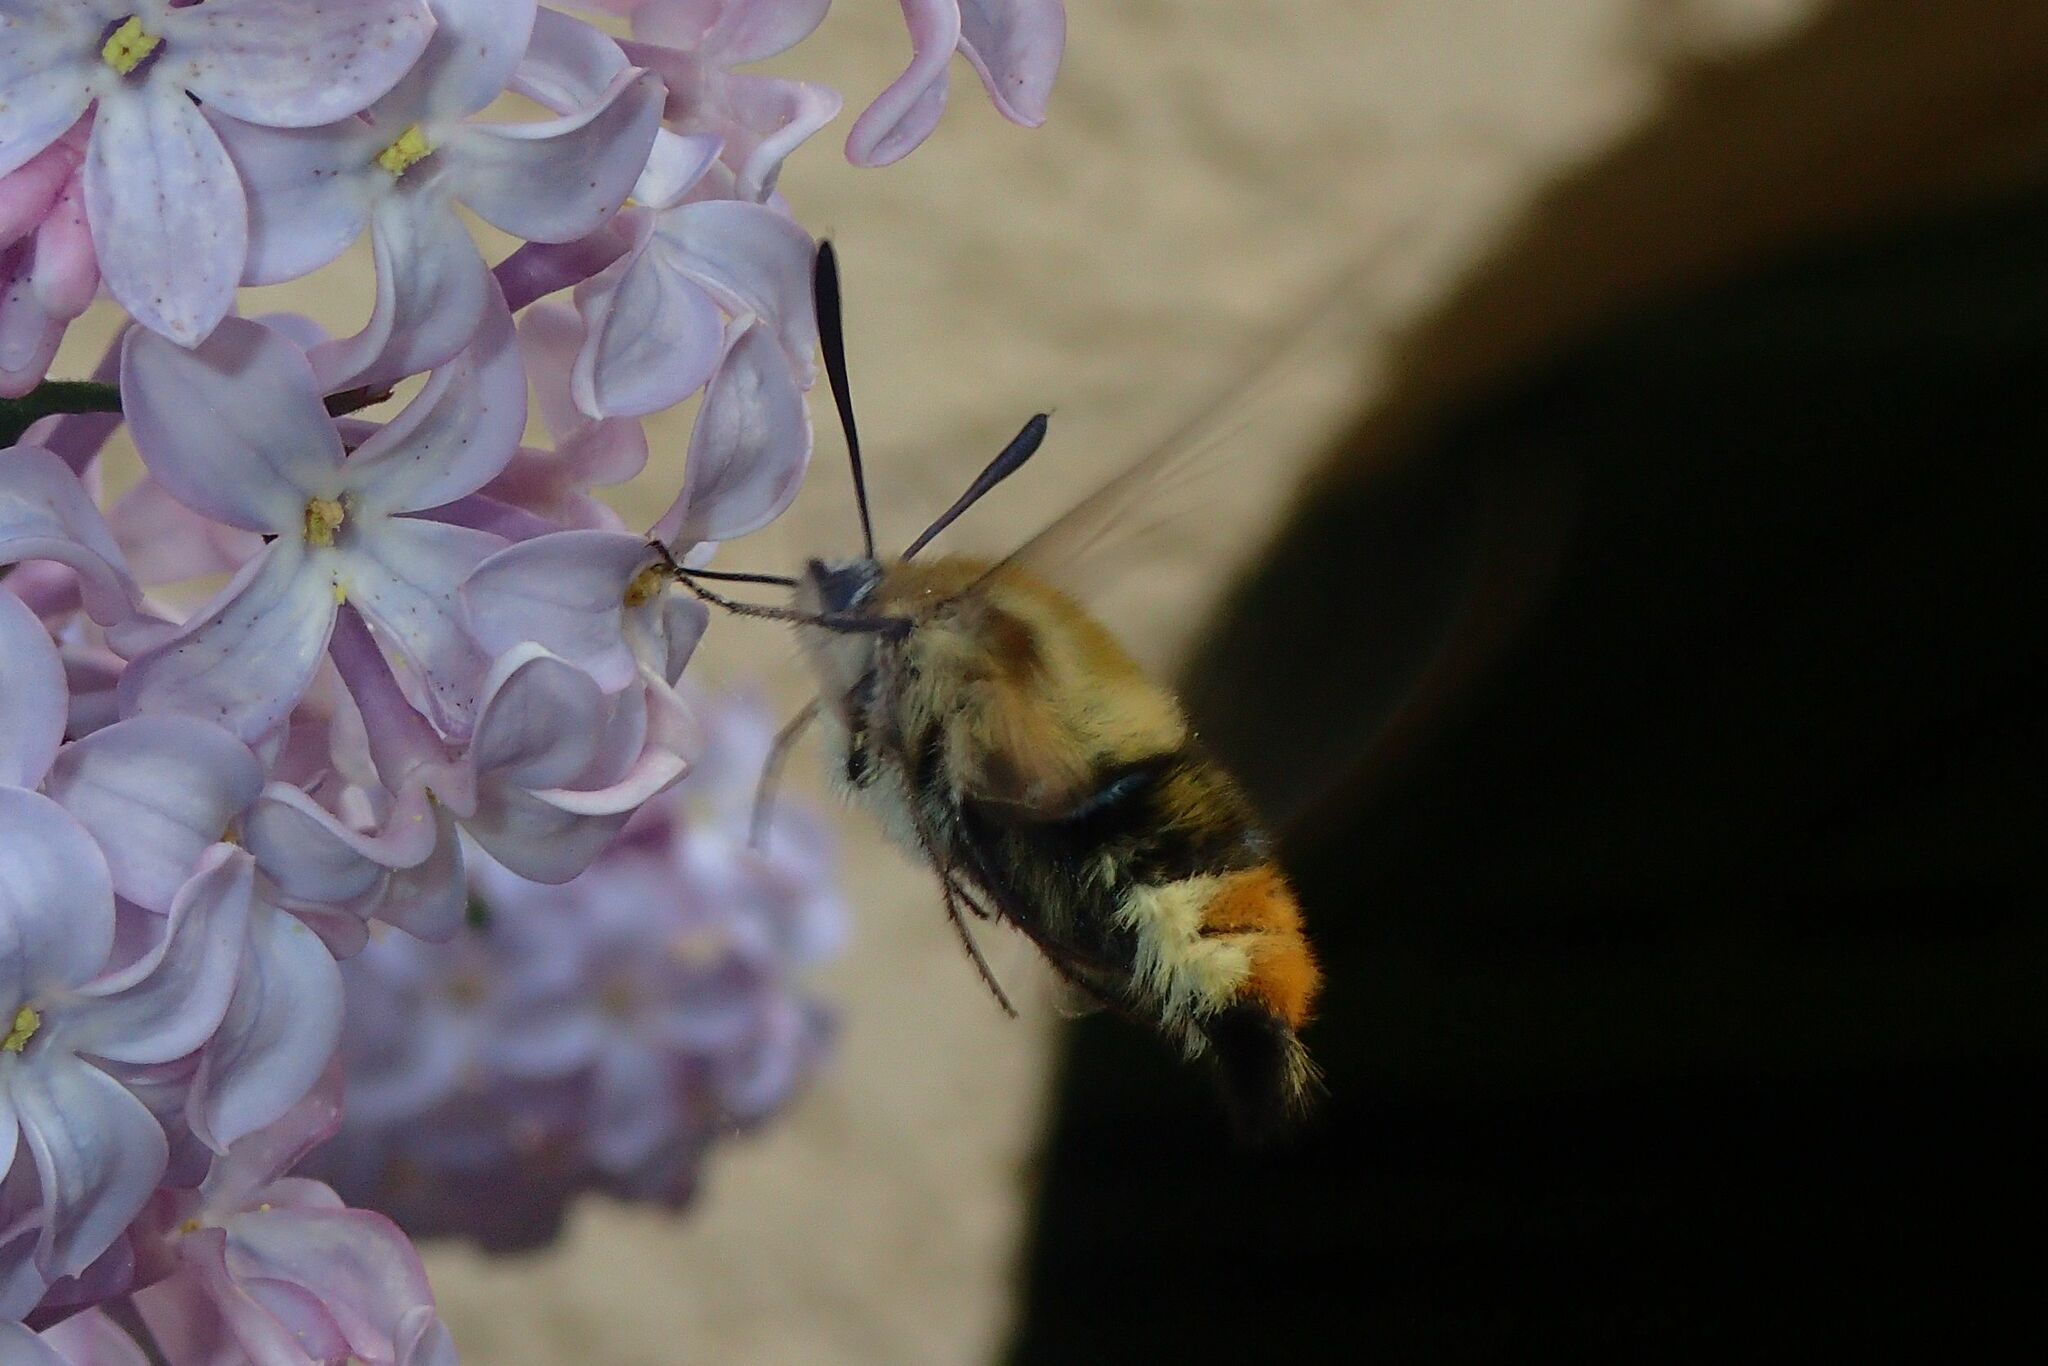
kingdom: Animalia
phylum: Arthropoda
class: Insecta
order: Lepidoptera
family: Sphingidae
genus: Hemaris
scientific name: Hemaris tityus
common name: Narrow-bordered bee hawk-moth
